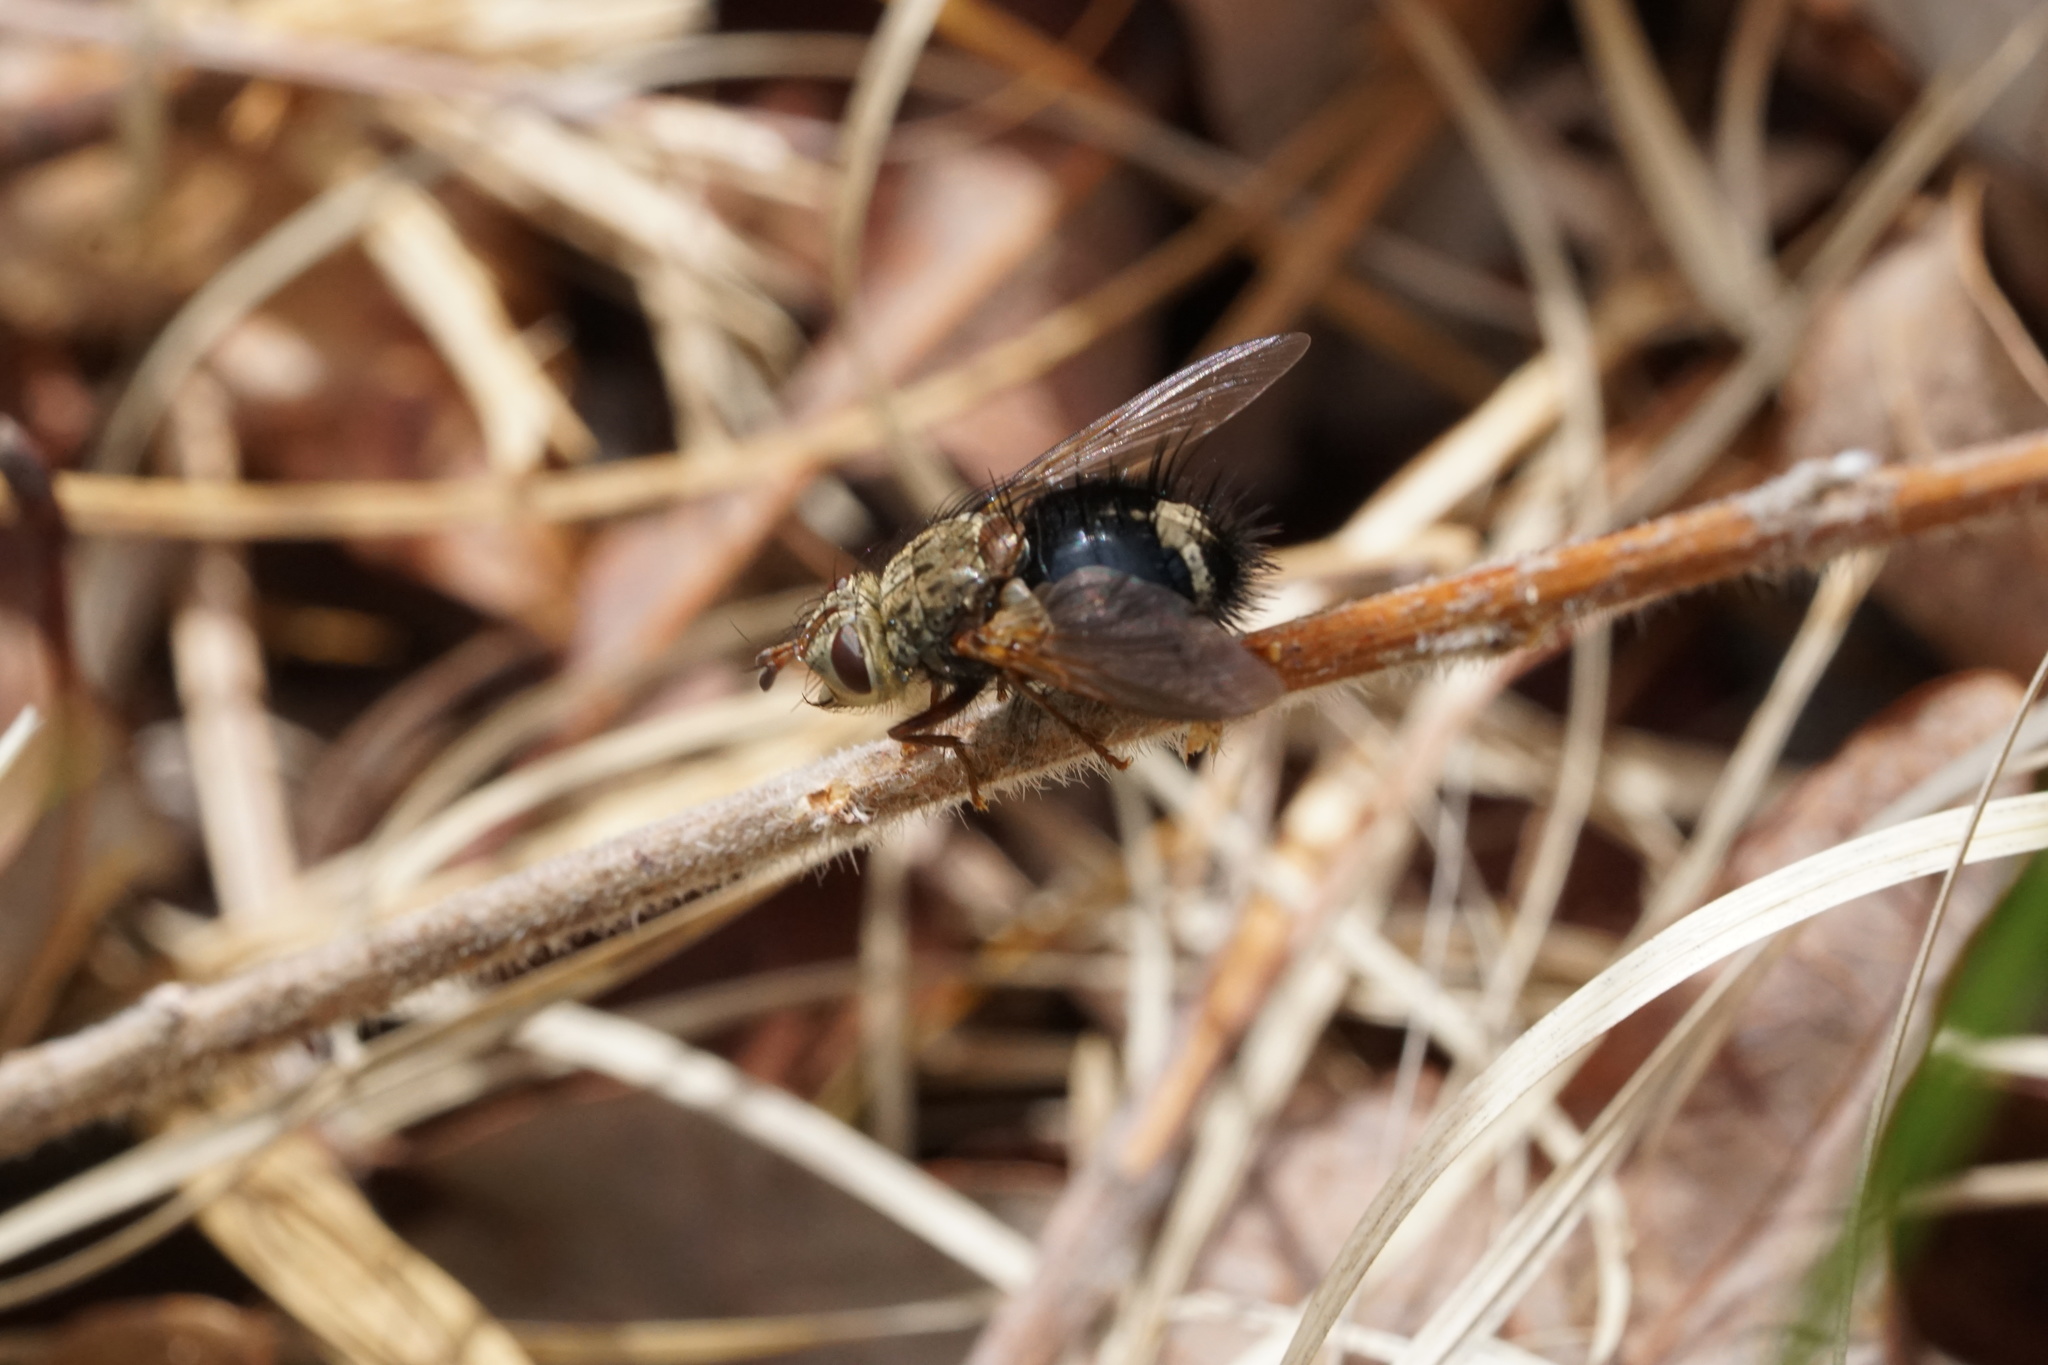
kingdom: Animalia
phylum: Arthropoda
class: Insecta
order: Diptera
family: Tachinidae
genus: Epalpus
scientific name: Epalpus signifer
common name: Early tachinid fly
